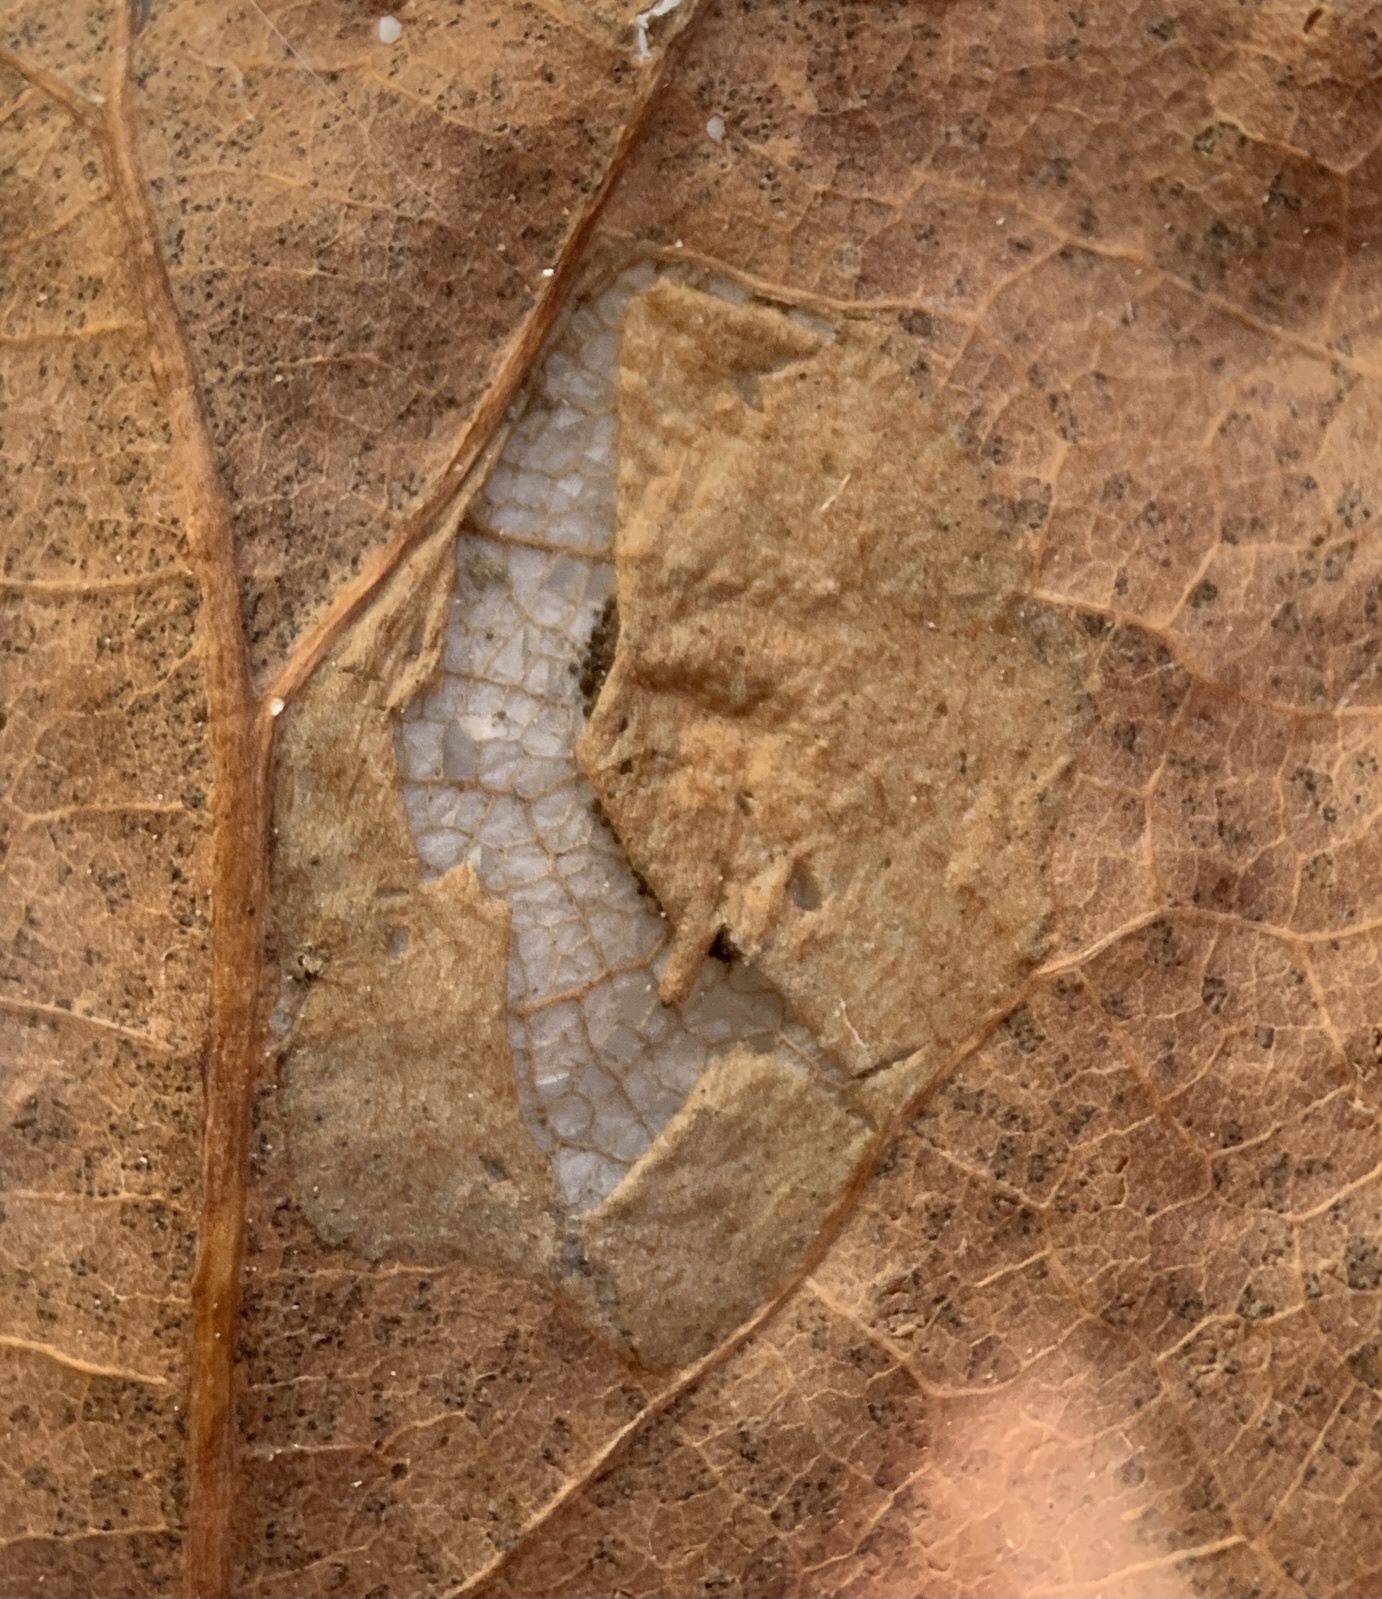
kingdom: Animalia
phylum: Arthropoda
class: Insecta
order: Lepidoptera
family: Gracillariidae
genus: Phyllonorycter
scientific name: Phyllonorycter basistrigella
